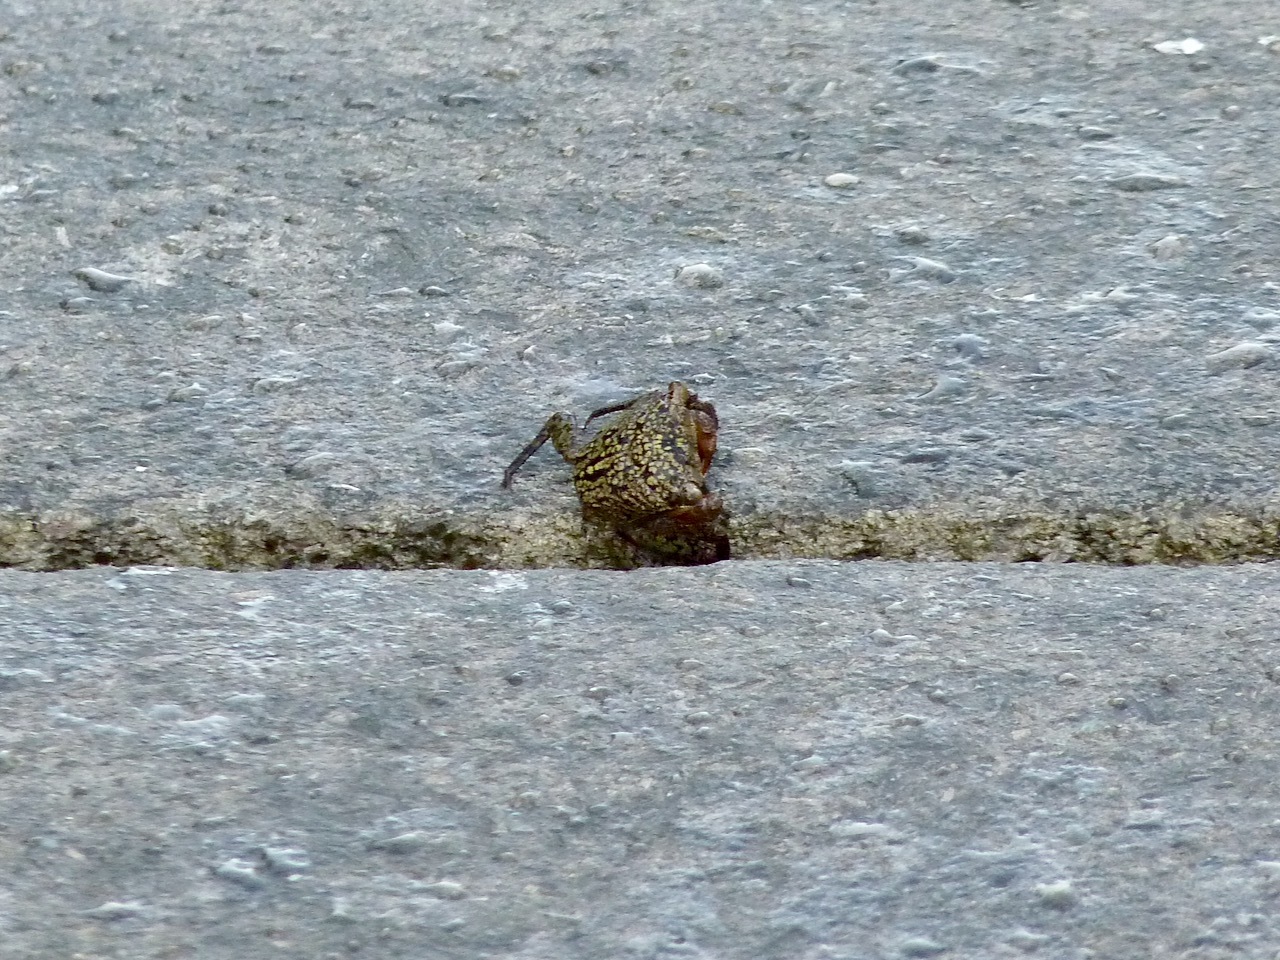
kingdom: Animalia
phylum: Arthropoda
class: Malacostraca
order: Decapoda
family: Sesarmidae
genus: Aratus
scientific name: Aratus pisonii
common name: Mangrove crab
